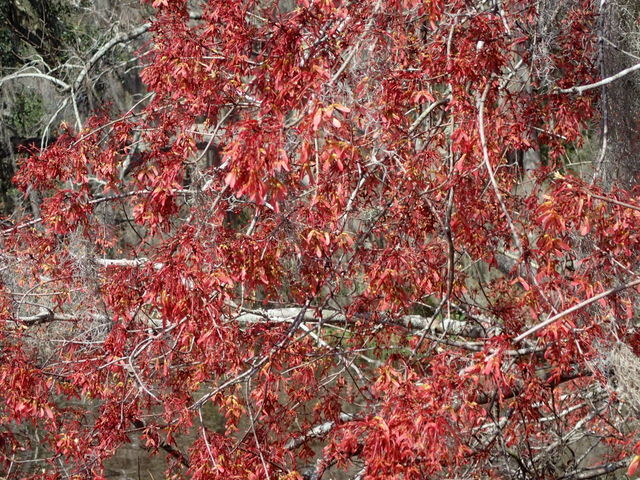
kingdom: Plantae
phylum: Tracheophyta
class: Magnoliopsida
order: Sapindales
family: Sapindaceae
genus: Acer
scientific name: Acer rubrum
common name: Red maple
